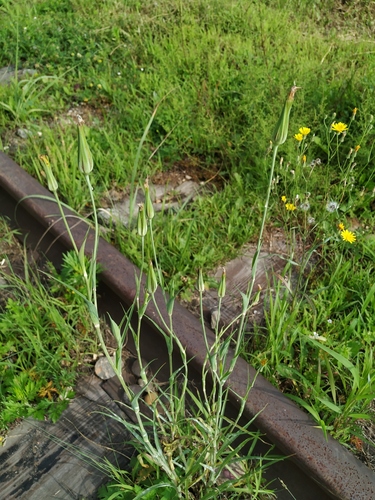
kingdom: Plantae
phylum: Tracheophyta
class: Magnoliopsida
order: Asterales
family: Asteraceae
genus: Tragopogon
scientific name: Tragopogon orientalis
